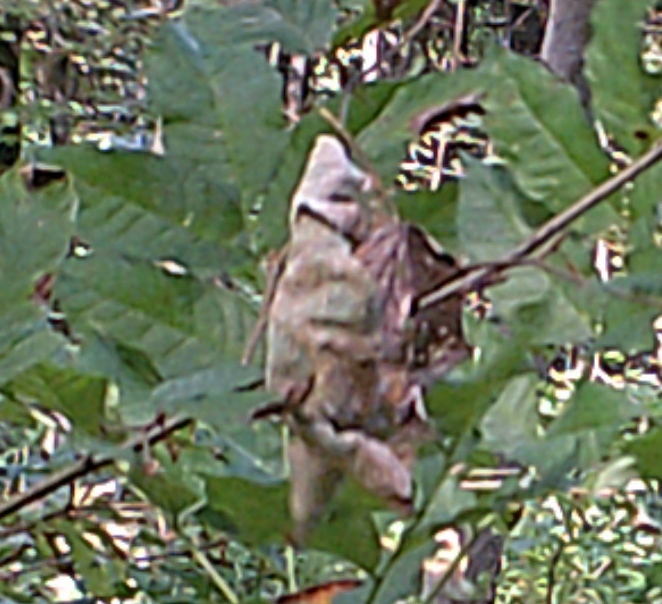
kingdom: Animalia
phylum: Chordata
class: Aves
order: Passeriformes
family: Paridae
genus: Lophophanes
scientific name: Lophophanes cristatus
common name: European crested tit
